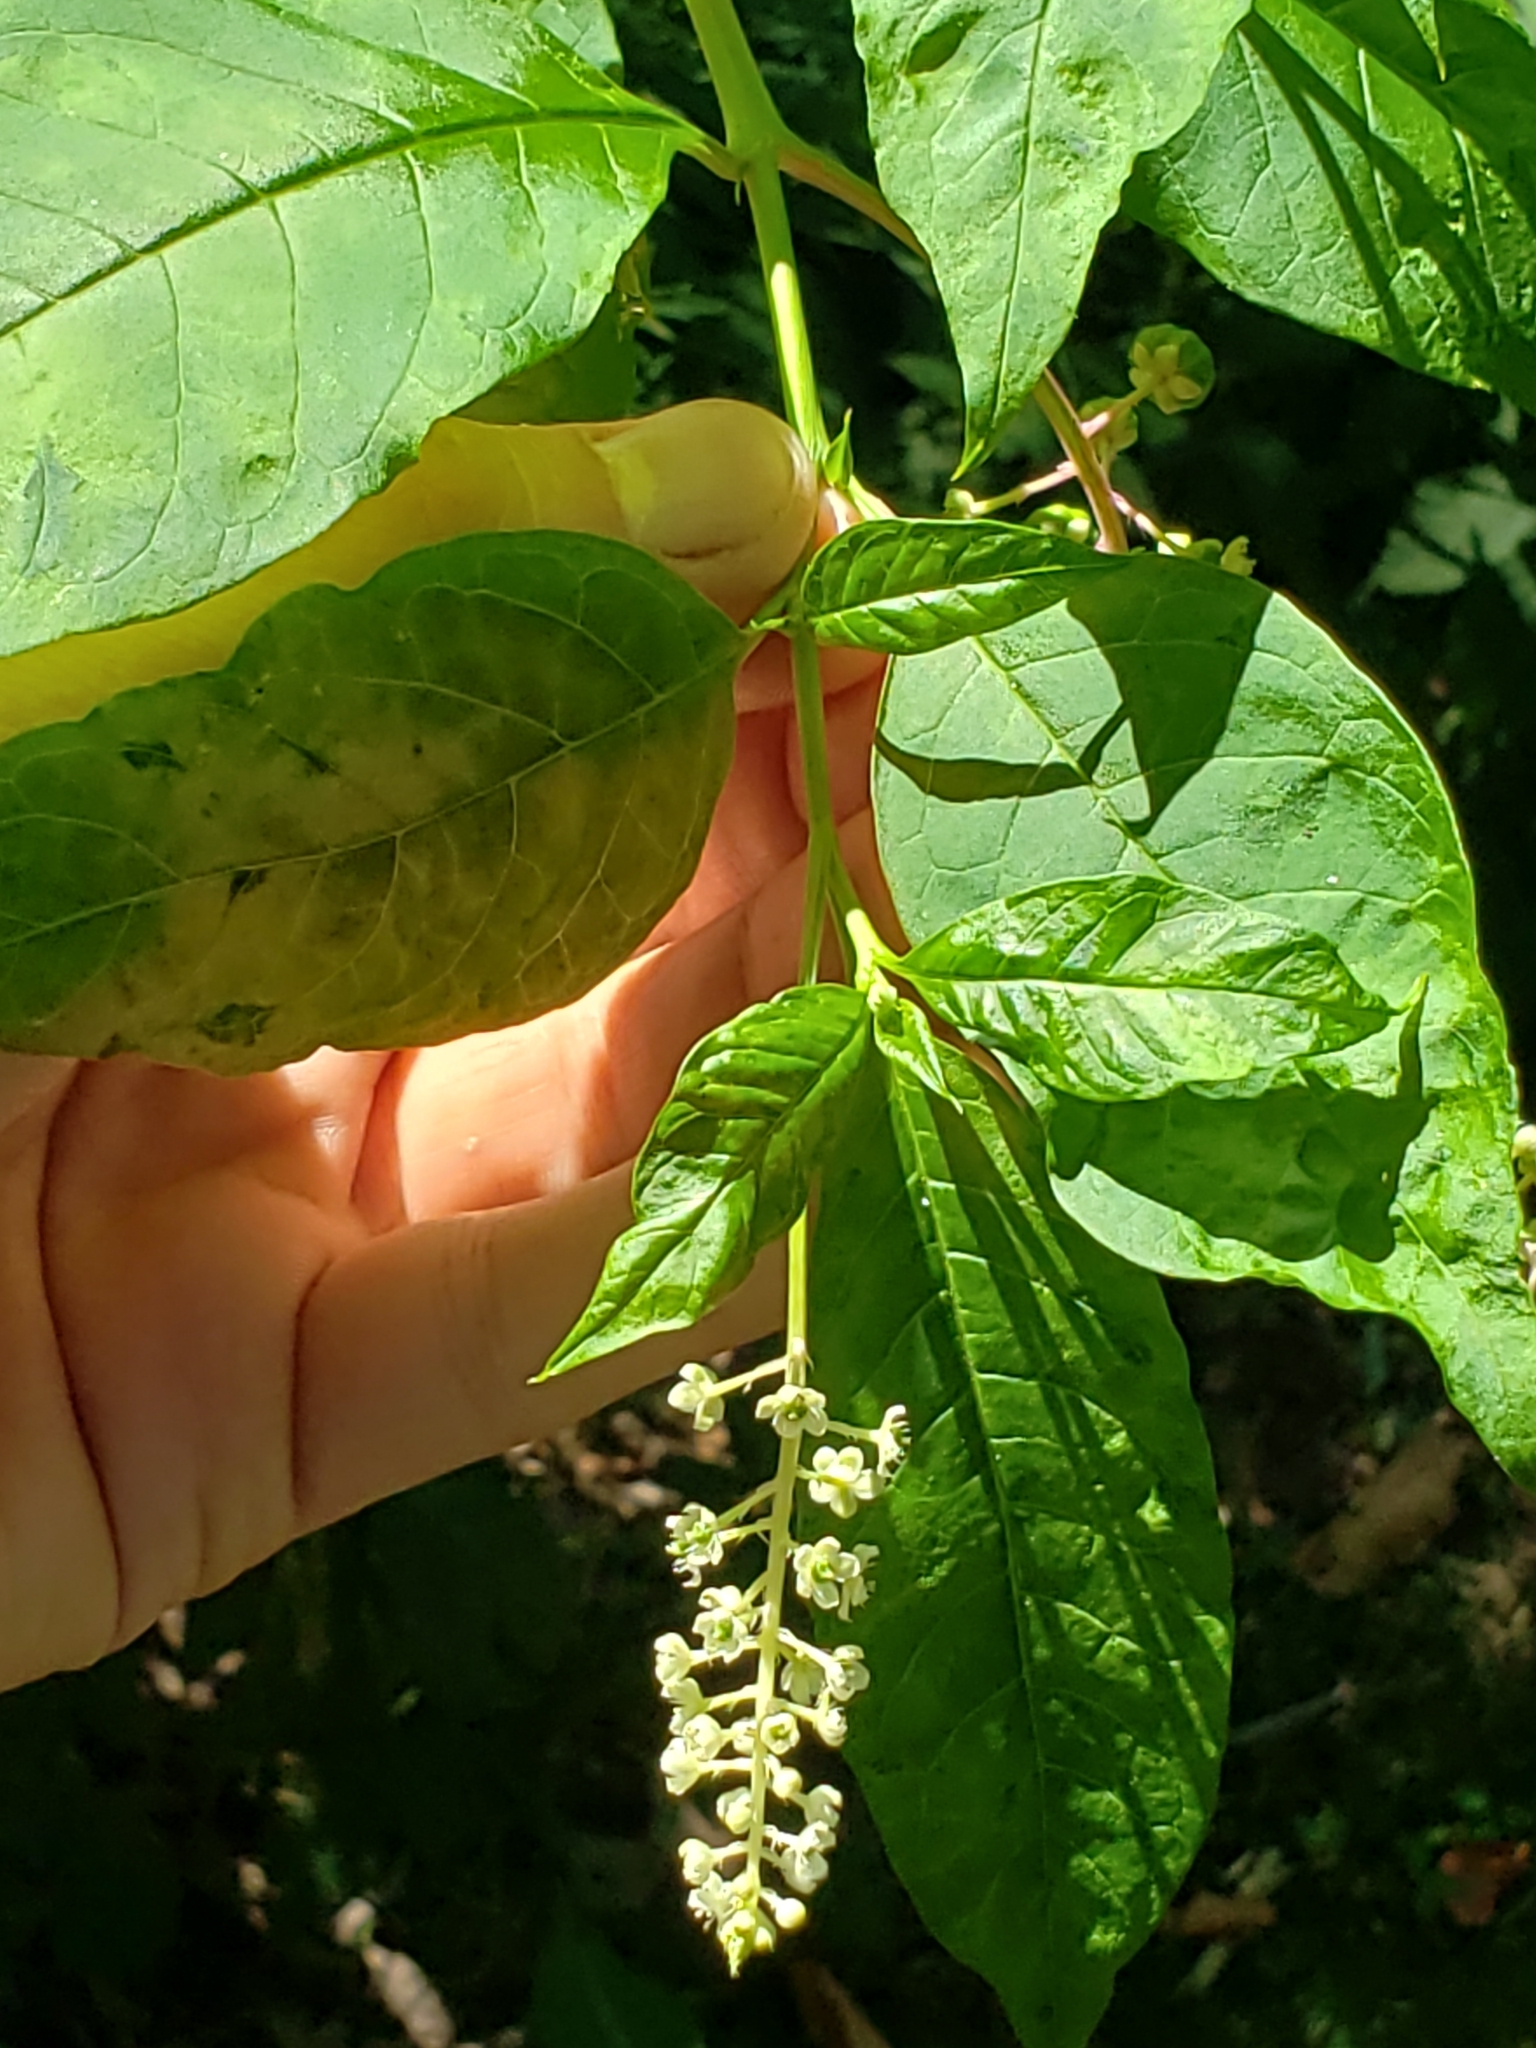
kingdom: Plantae
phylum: Tracheophyta
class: Magnoliopsida
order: Caryophyllales
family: Phytolaccaceae
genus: Phytolacca
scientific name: Phytolacca americana
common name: American pokeweed
